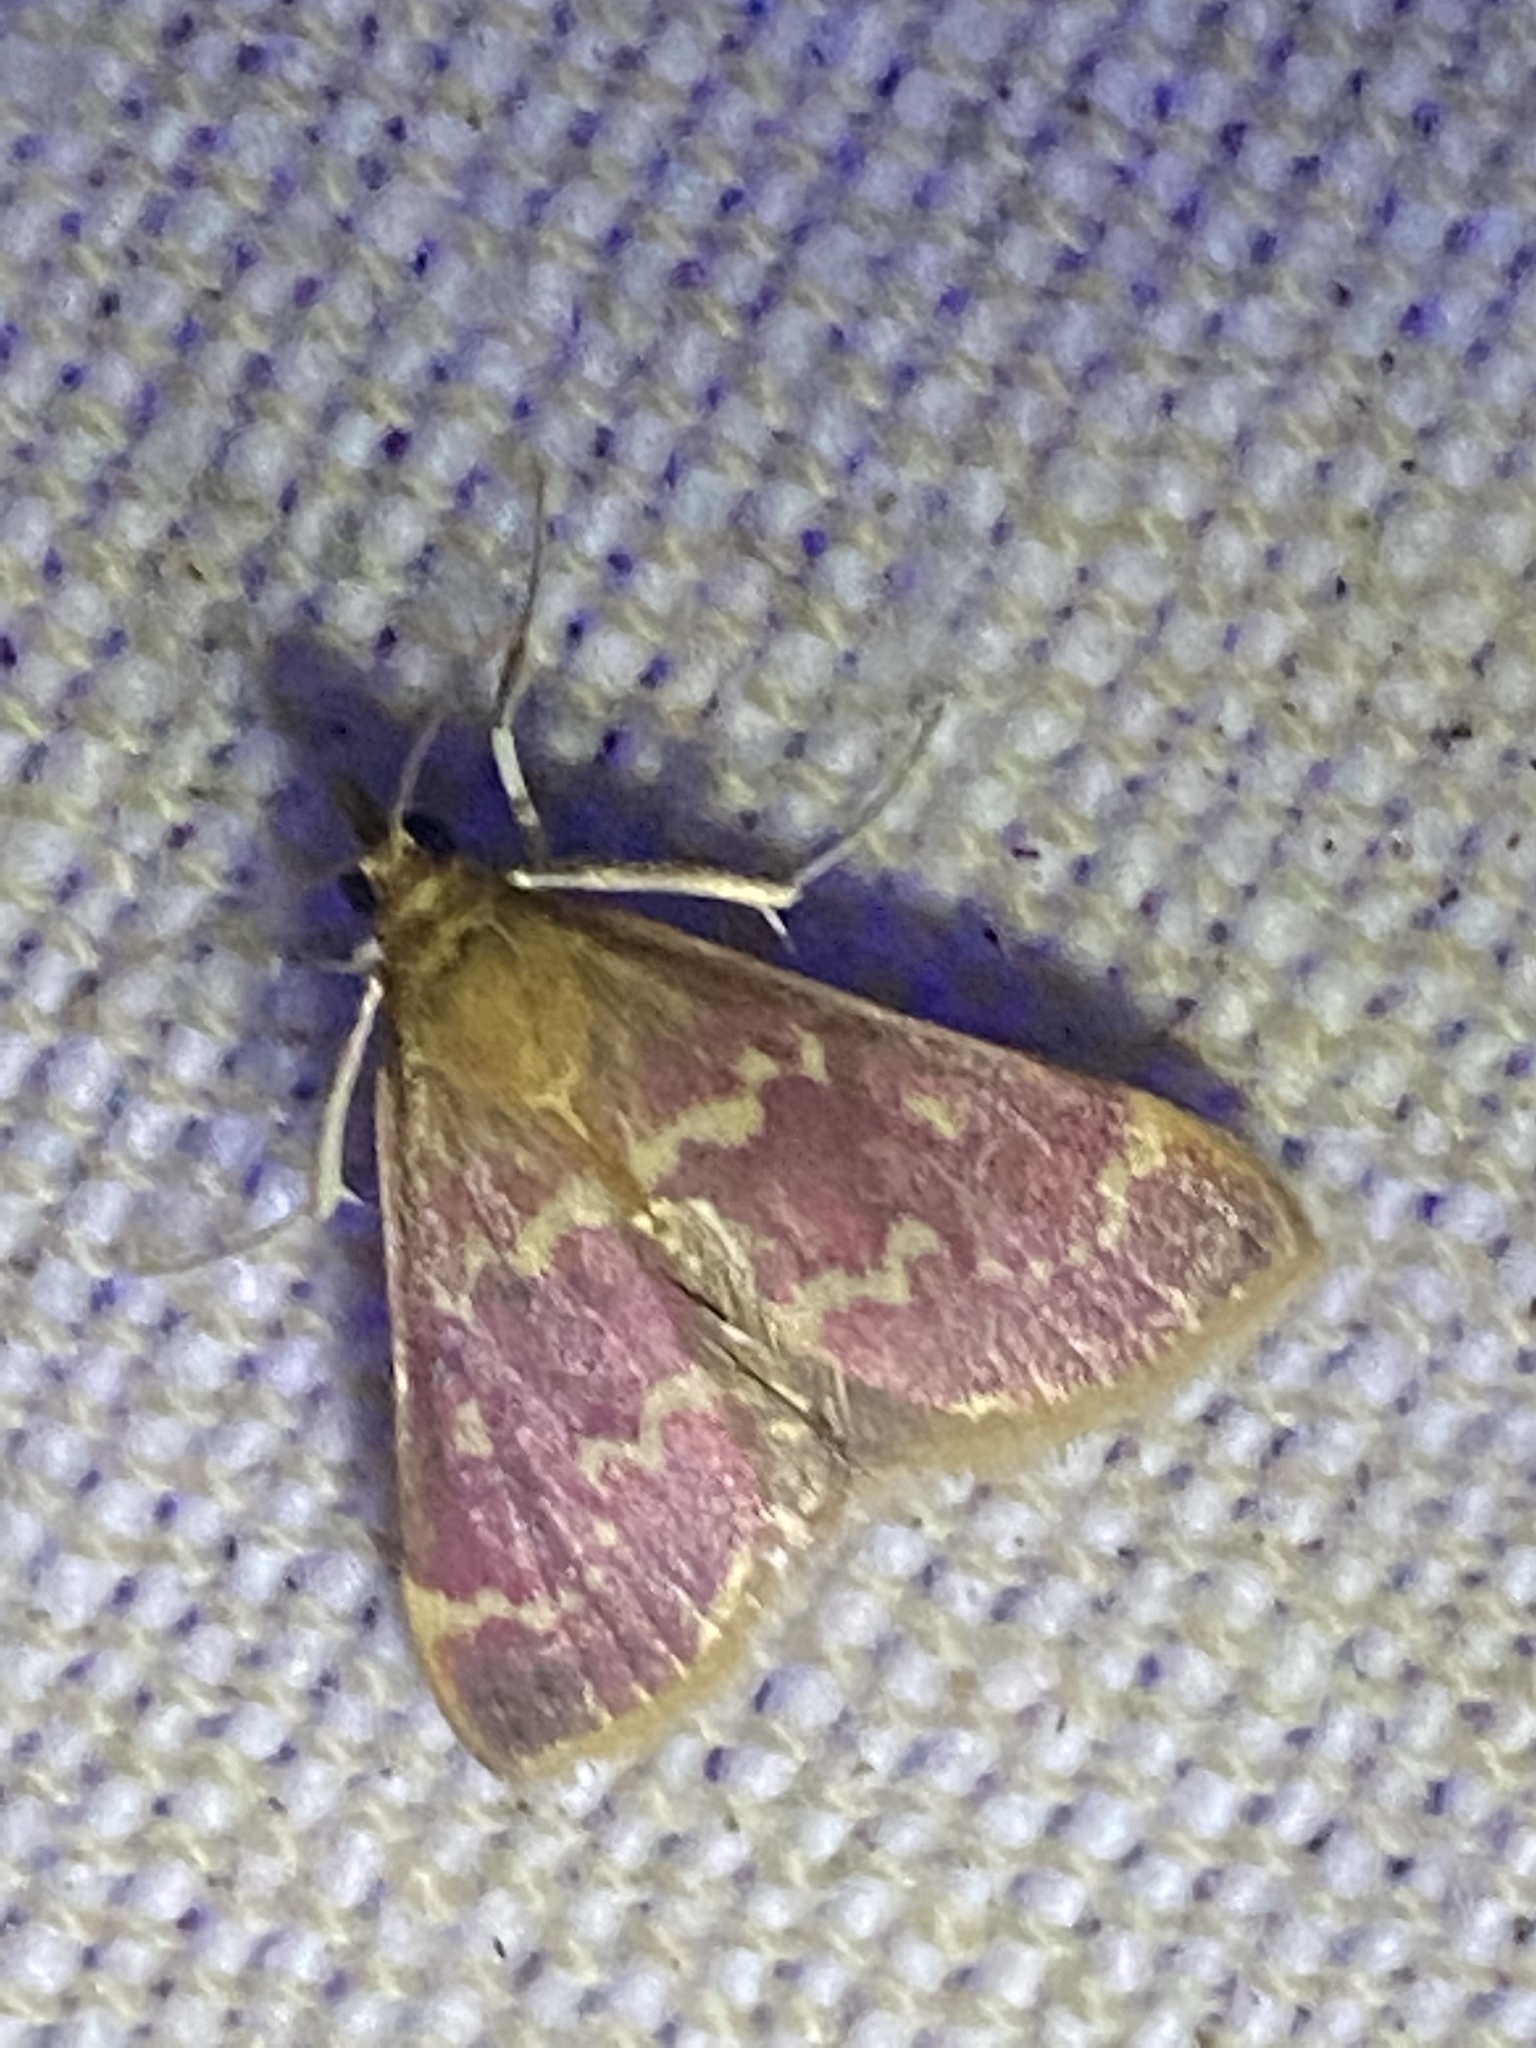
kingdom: Animalia
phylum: Arthropoda
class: Insecta
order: Lepidoptera
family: Crambidae
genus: Pyrausta
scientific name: Pyrausta signatalis
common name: Raspberry pyrausta moth
